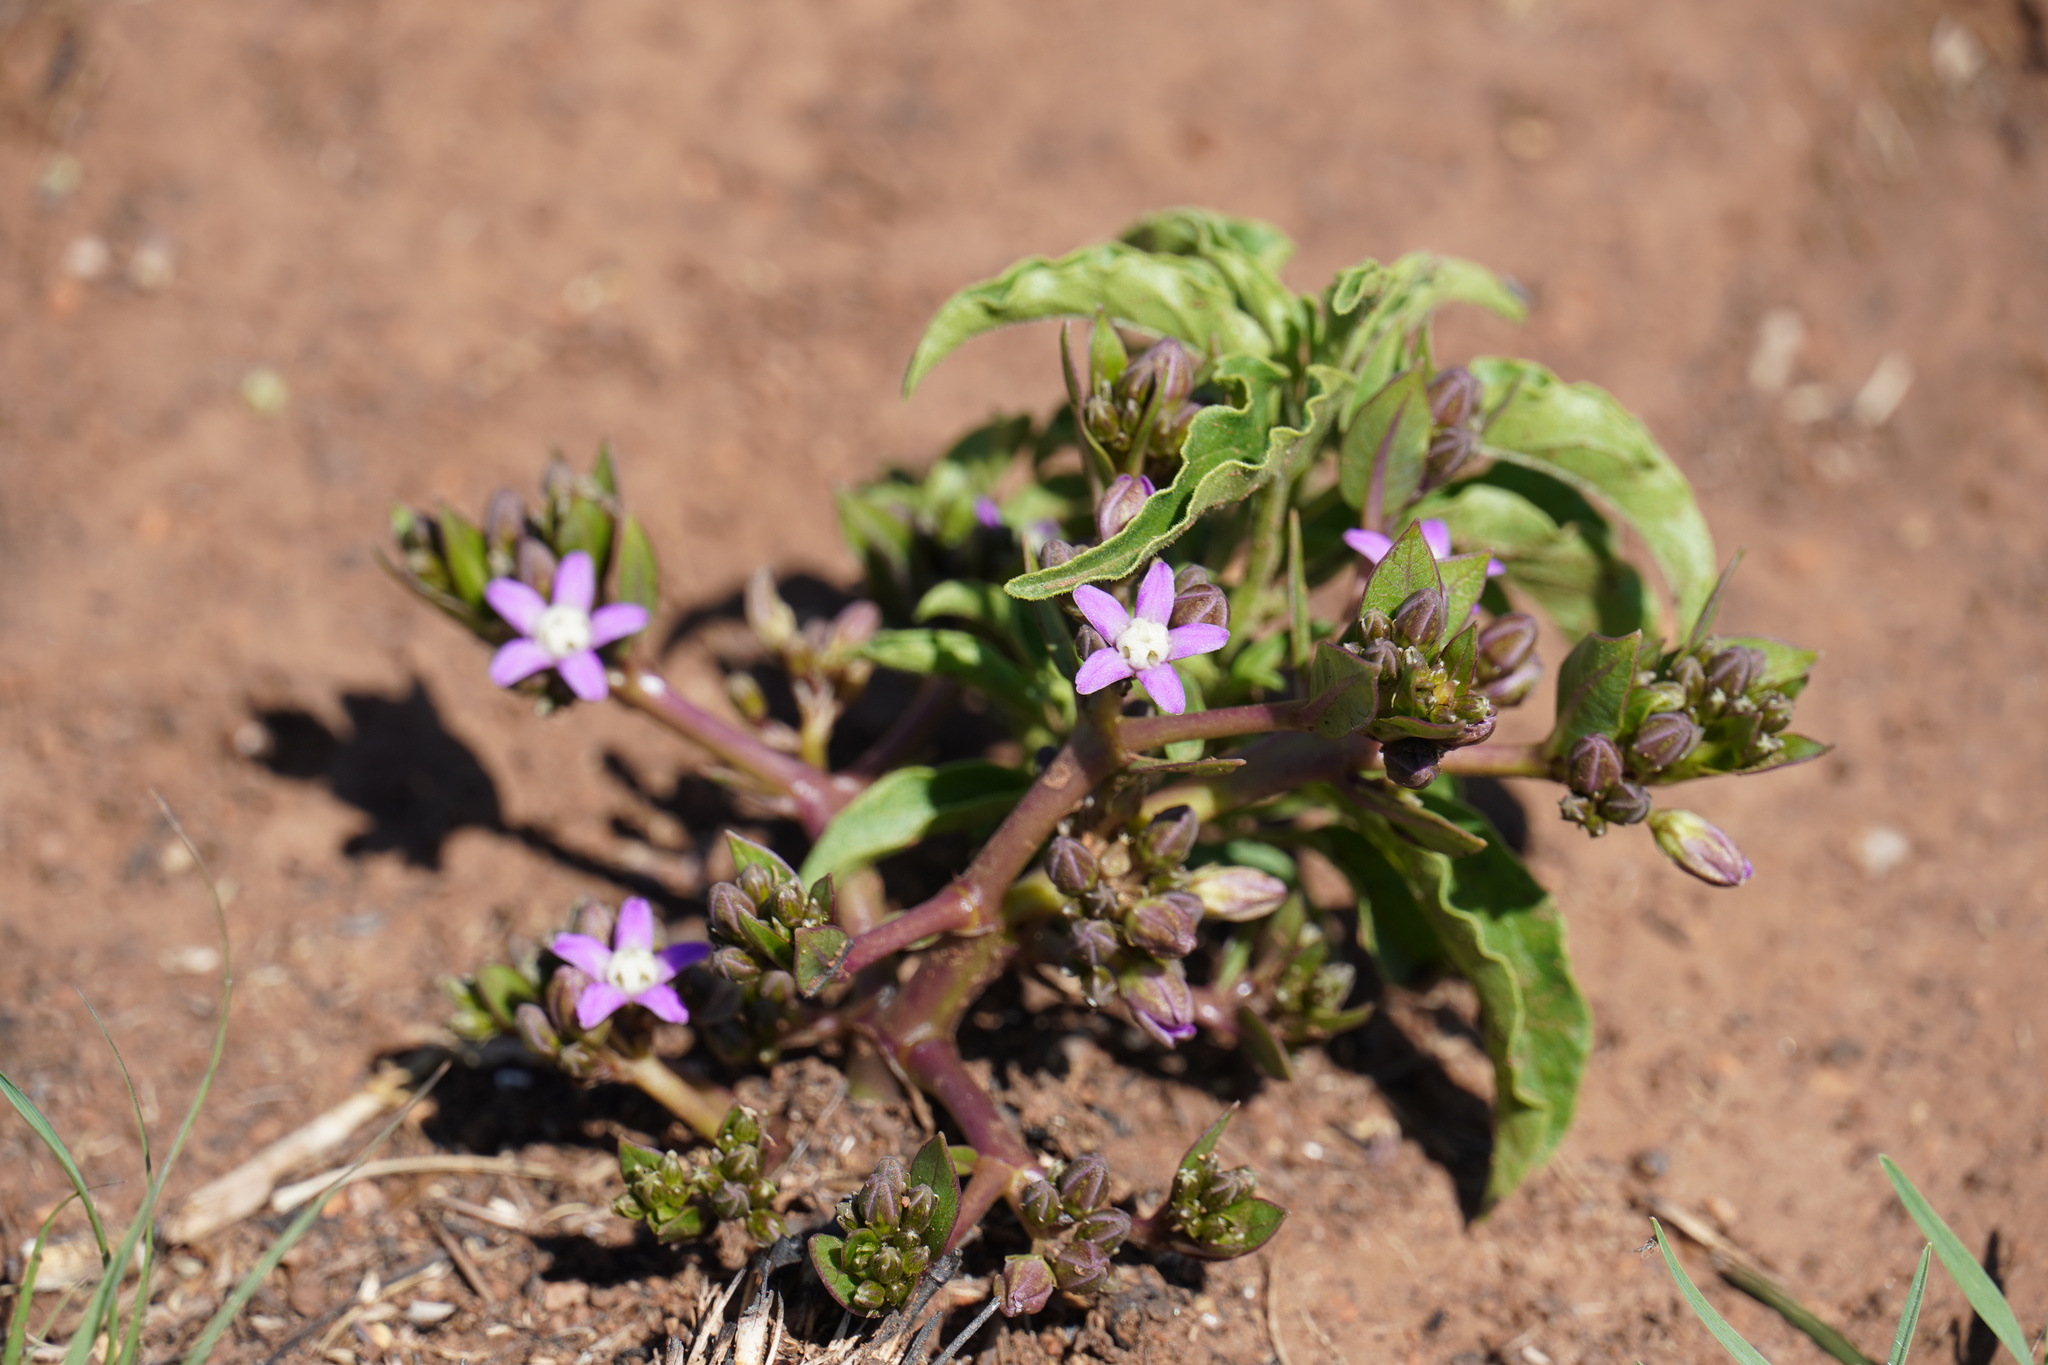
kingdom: Plantae
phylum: Tracheophyta
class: Magnoliopsida
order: Gentianales
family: Apocynaceae
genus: Raphionacme
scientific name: Raphionacme hirsuta
